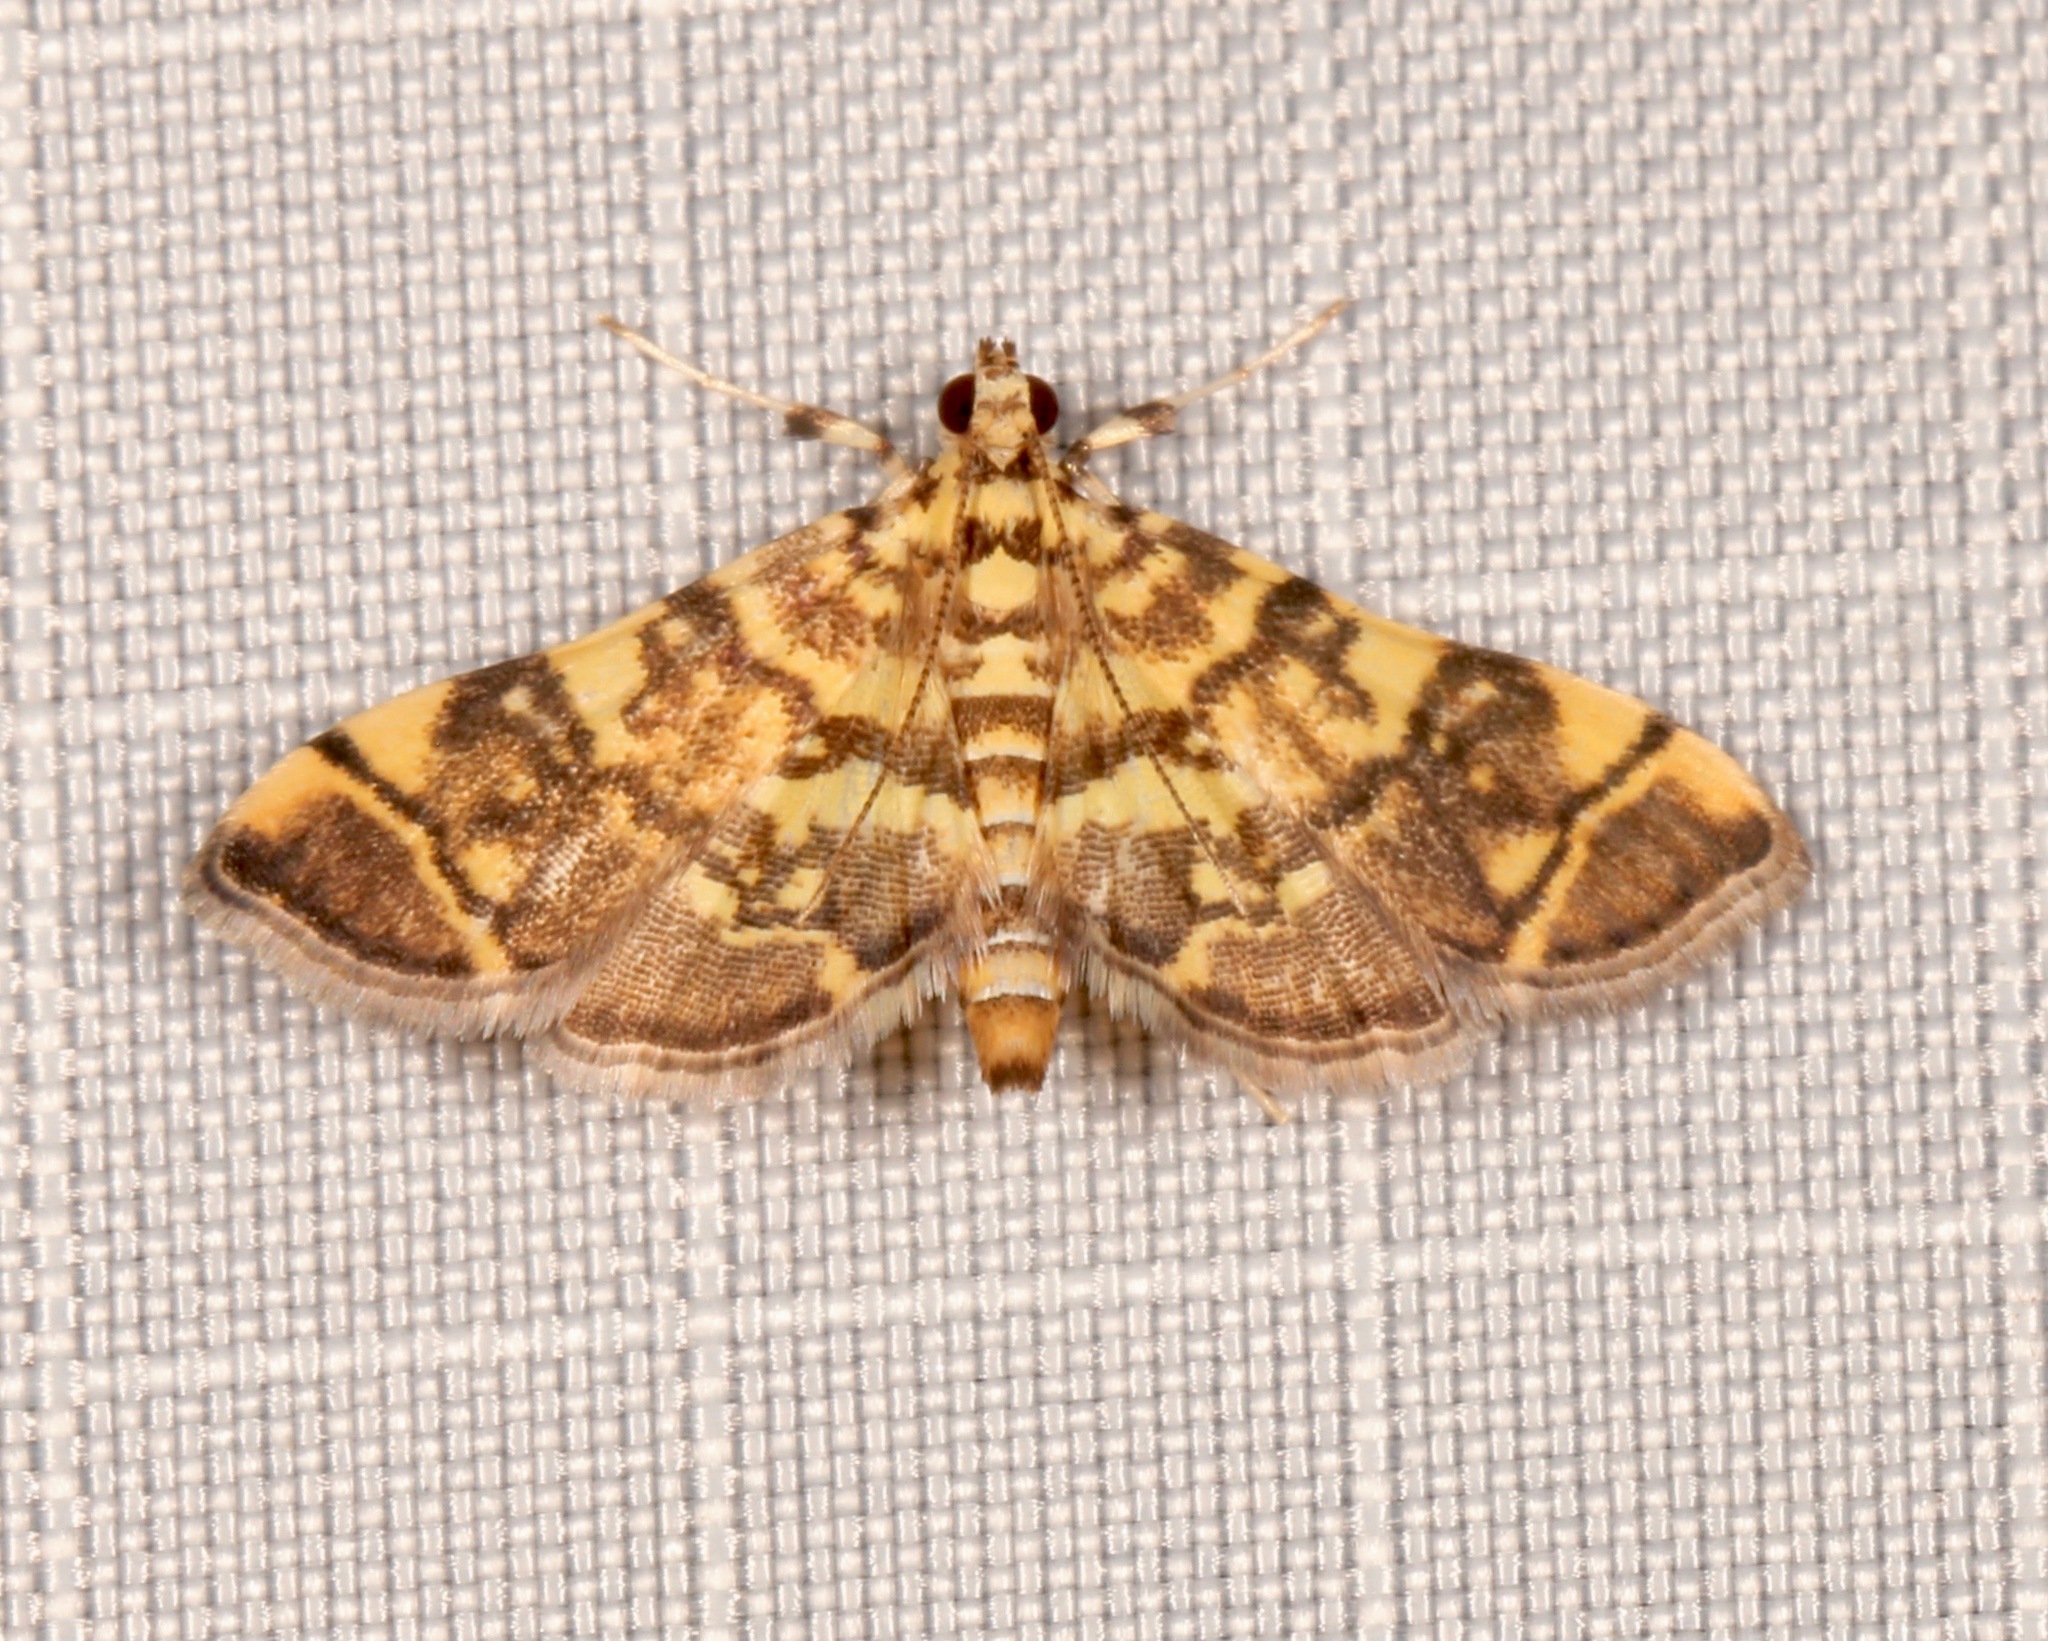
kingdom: Animalia
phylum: Arthropoda
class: Insecta
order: Lepidoptera
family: Crambidae
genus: Apogeshna
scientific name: Apogeshna stenialis
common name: Checkered apogeshna moth
